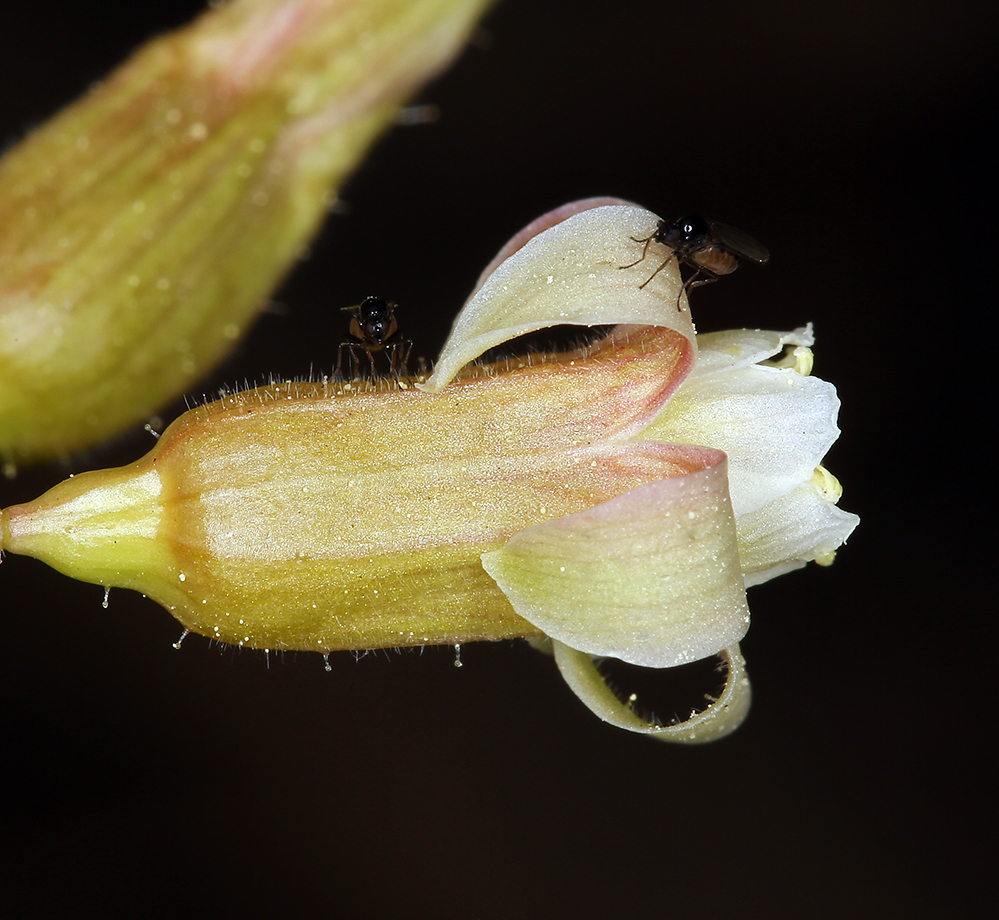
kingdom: Plantae
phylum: Tracheophyta
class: Magnoliopsida
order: Saxifragales
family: Grossulariaceae
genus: Ribes
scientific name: Ribes viscosissimum
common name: Sticky currant
